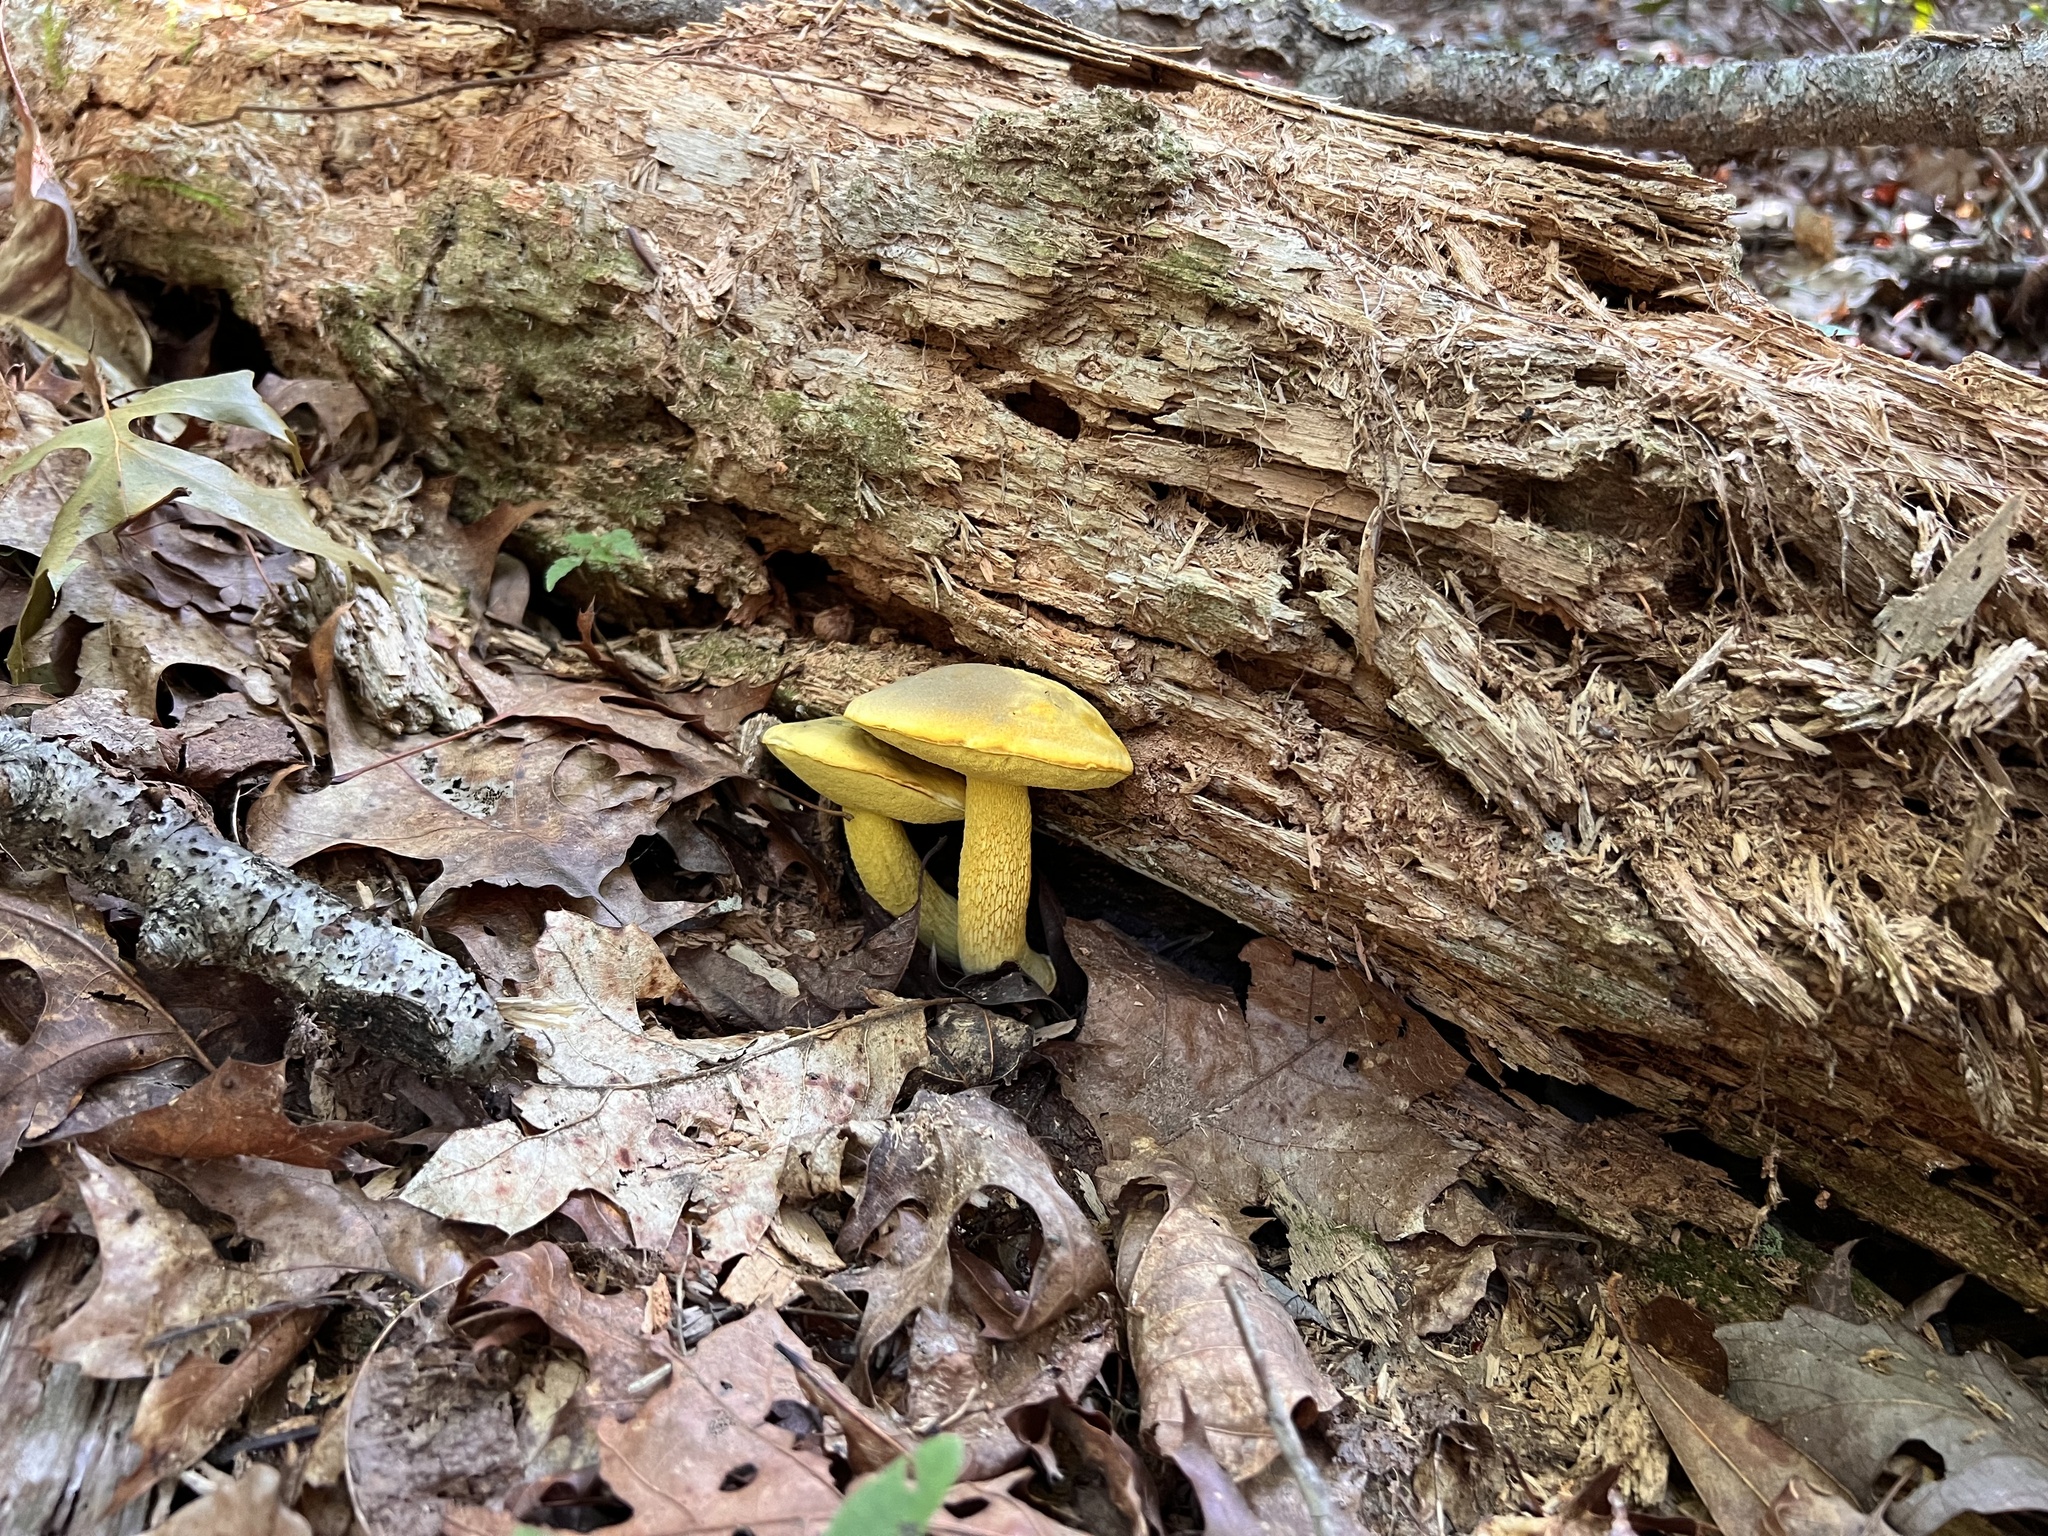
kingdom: Fungi
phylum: Basidiomycota
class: Agaricomycetes
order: Boletales
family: Boletaceae
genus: Retiboletus
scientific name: Retiboletus ornatipes
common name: Ornate-stalked bolete
